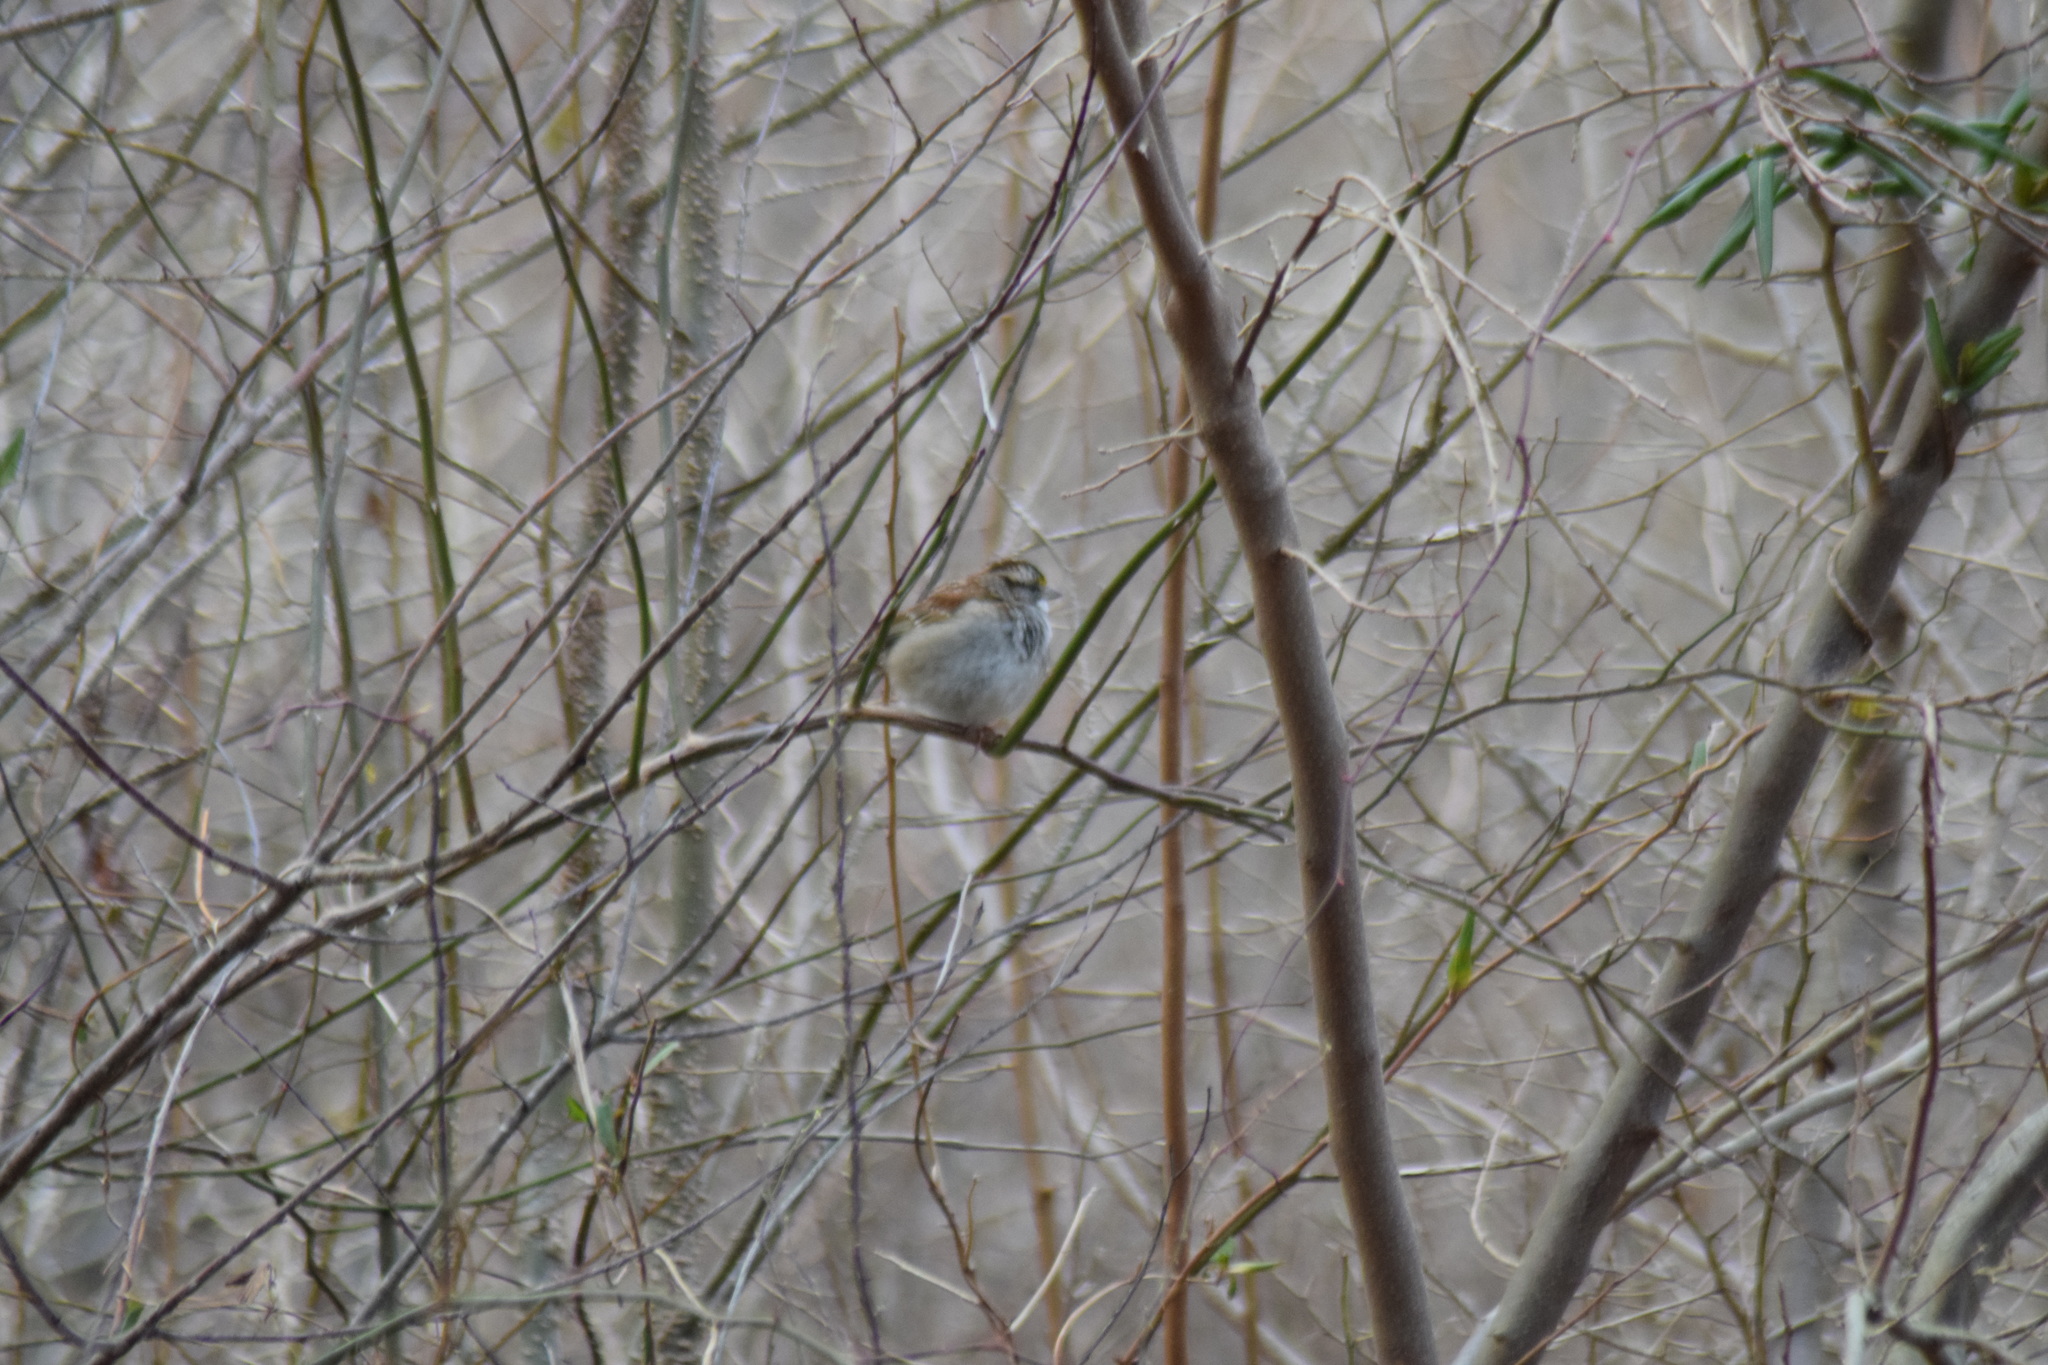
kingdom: Animalia
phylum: Chordata
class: Aves
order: Passeriformes
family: Passerellidae
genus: Zonotrichia
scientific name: Zonotrichia albicollis
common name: White-throated sparrow
